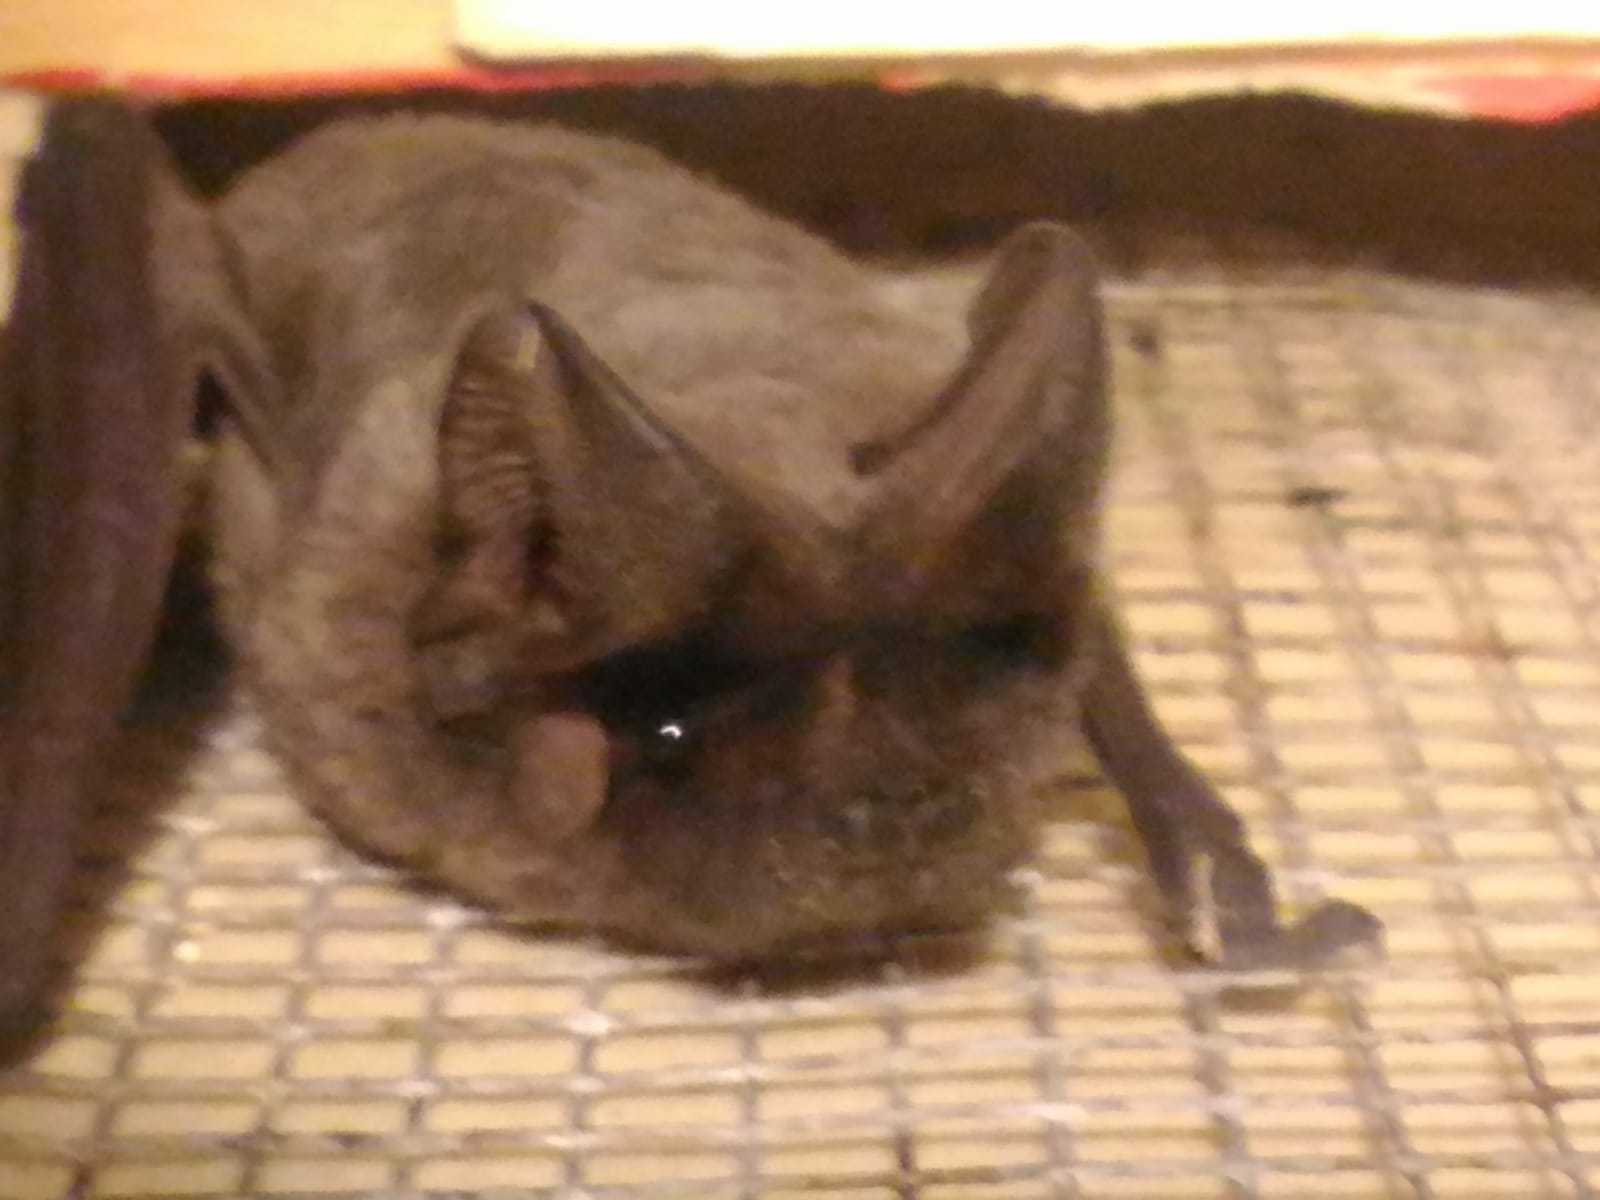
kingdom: Animalia
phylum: Chordata
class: Mammalia
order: Chiroptera
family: Molossidae
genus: Tadarida
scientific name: Tadarida teniotis
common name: European free-tailed bat
